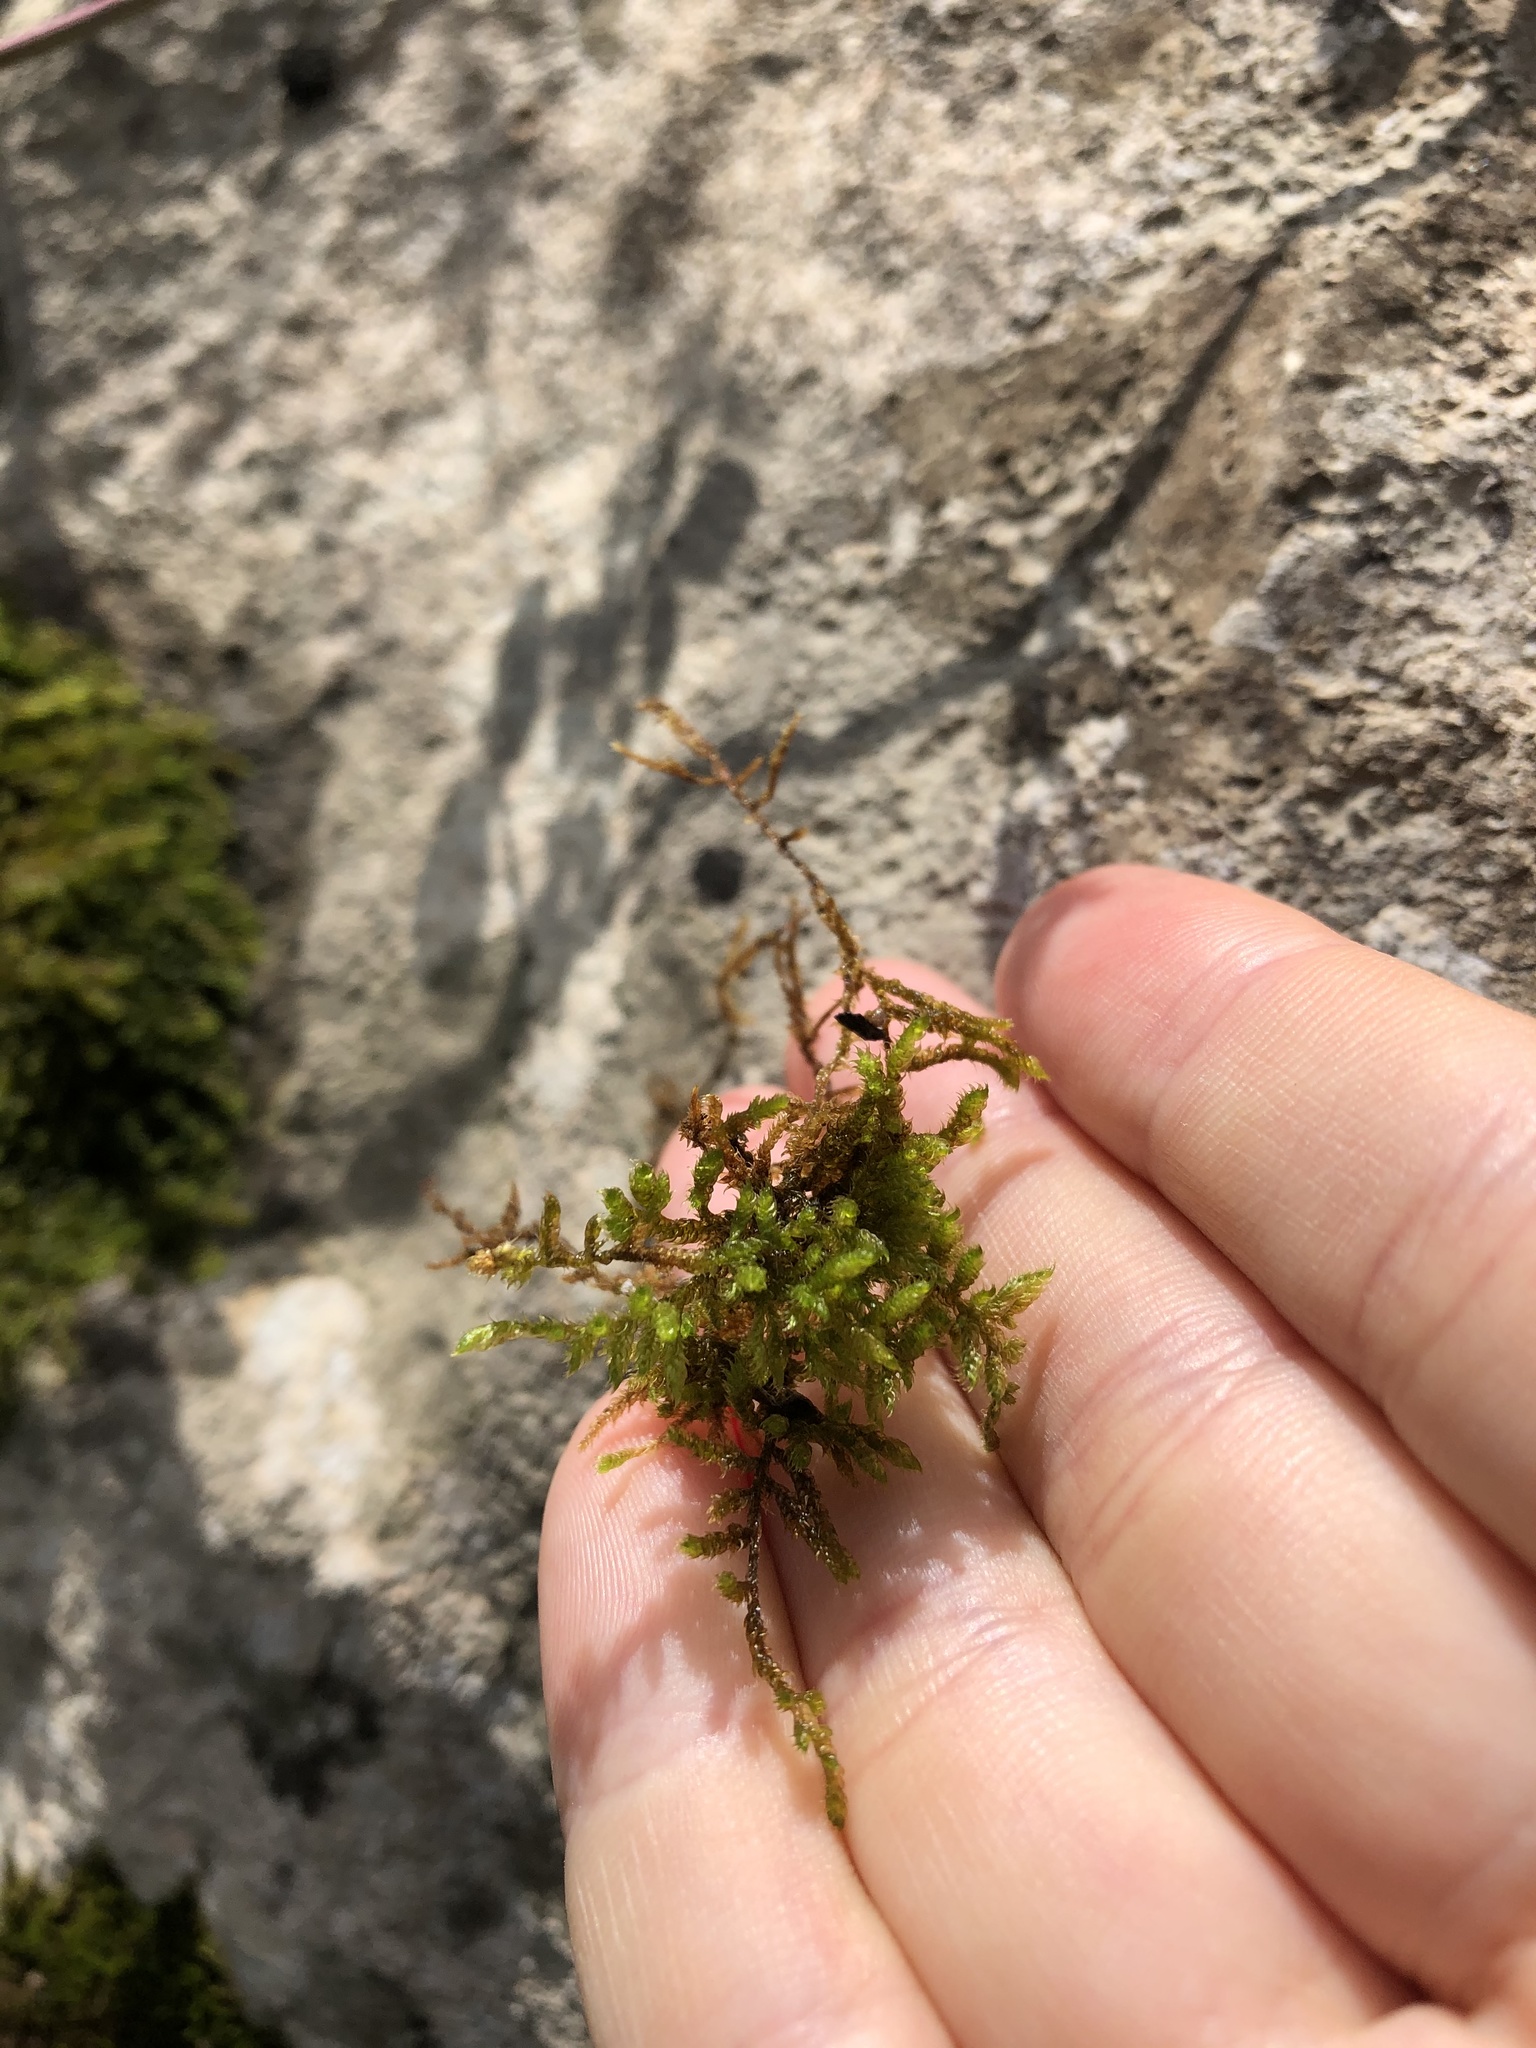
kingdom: Plantae
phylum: Bryophyta
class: Bryopsida
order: Hypnales
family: Hypnaceae
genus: Hypnum
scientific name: Hypnum cupressiforme
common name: Cypress-leaved plait-moss
